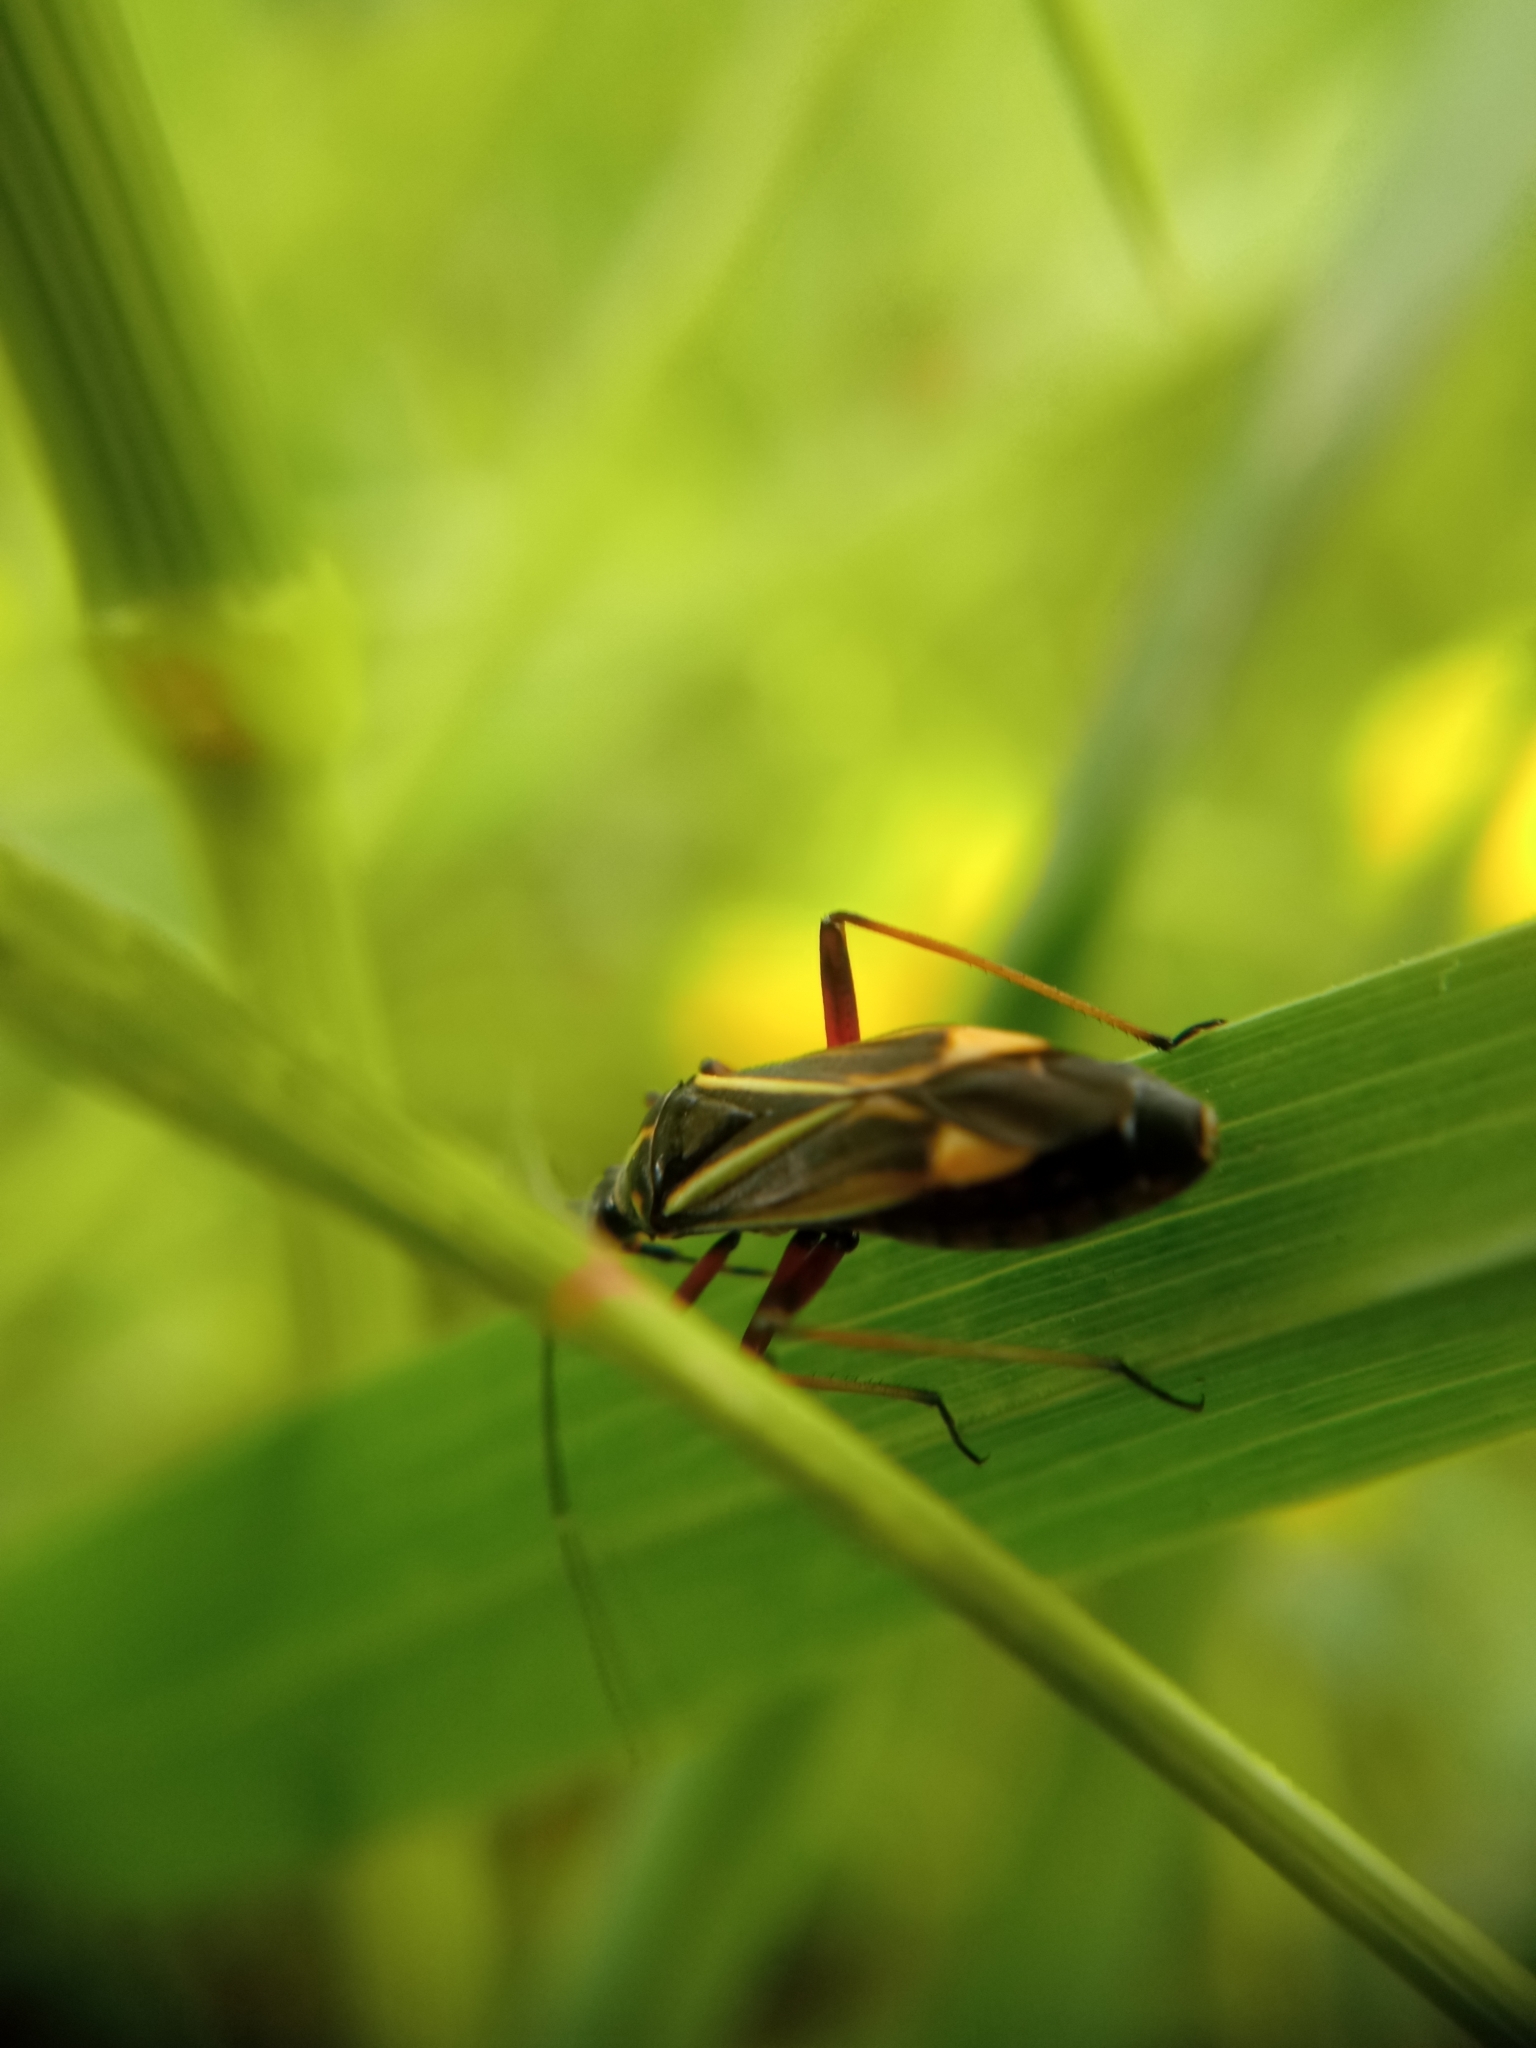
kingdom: Animalia
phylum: Arthropoda
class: Insecta
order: Hemiptera
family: Miridae
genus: Hadrodemus
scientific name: Hadrodemus m-flavum
